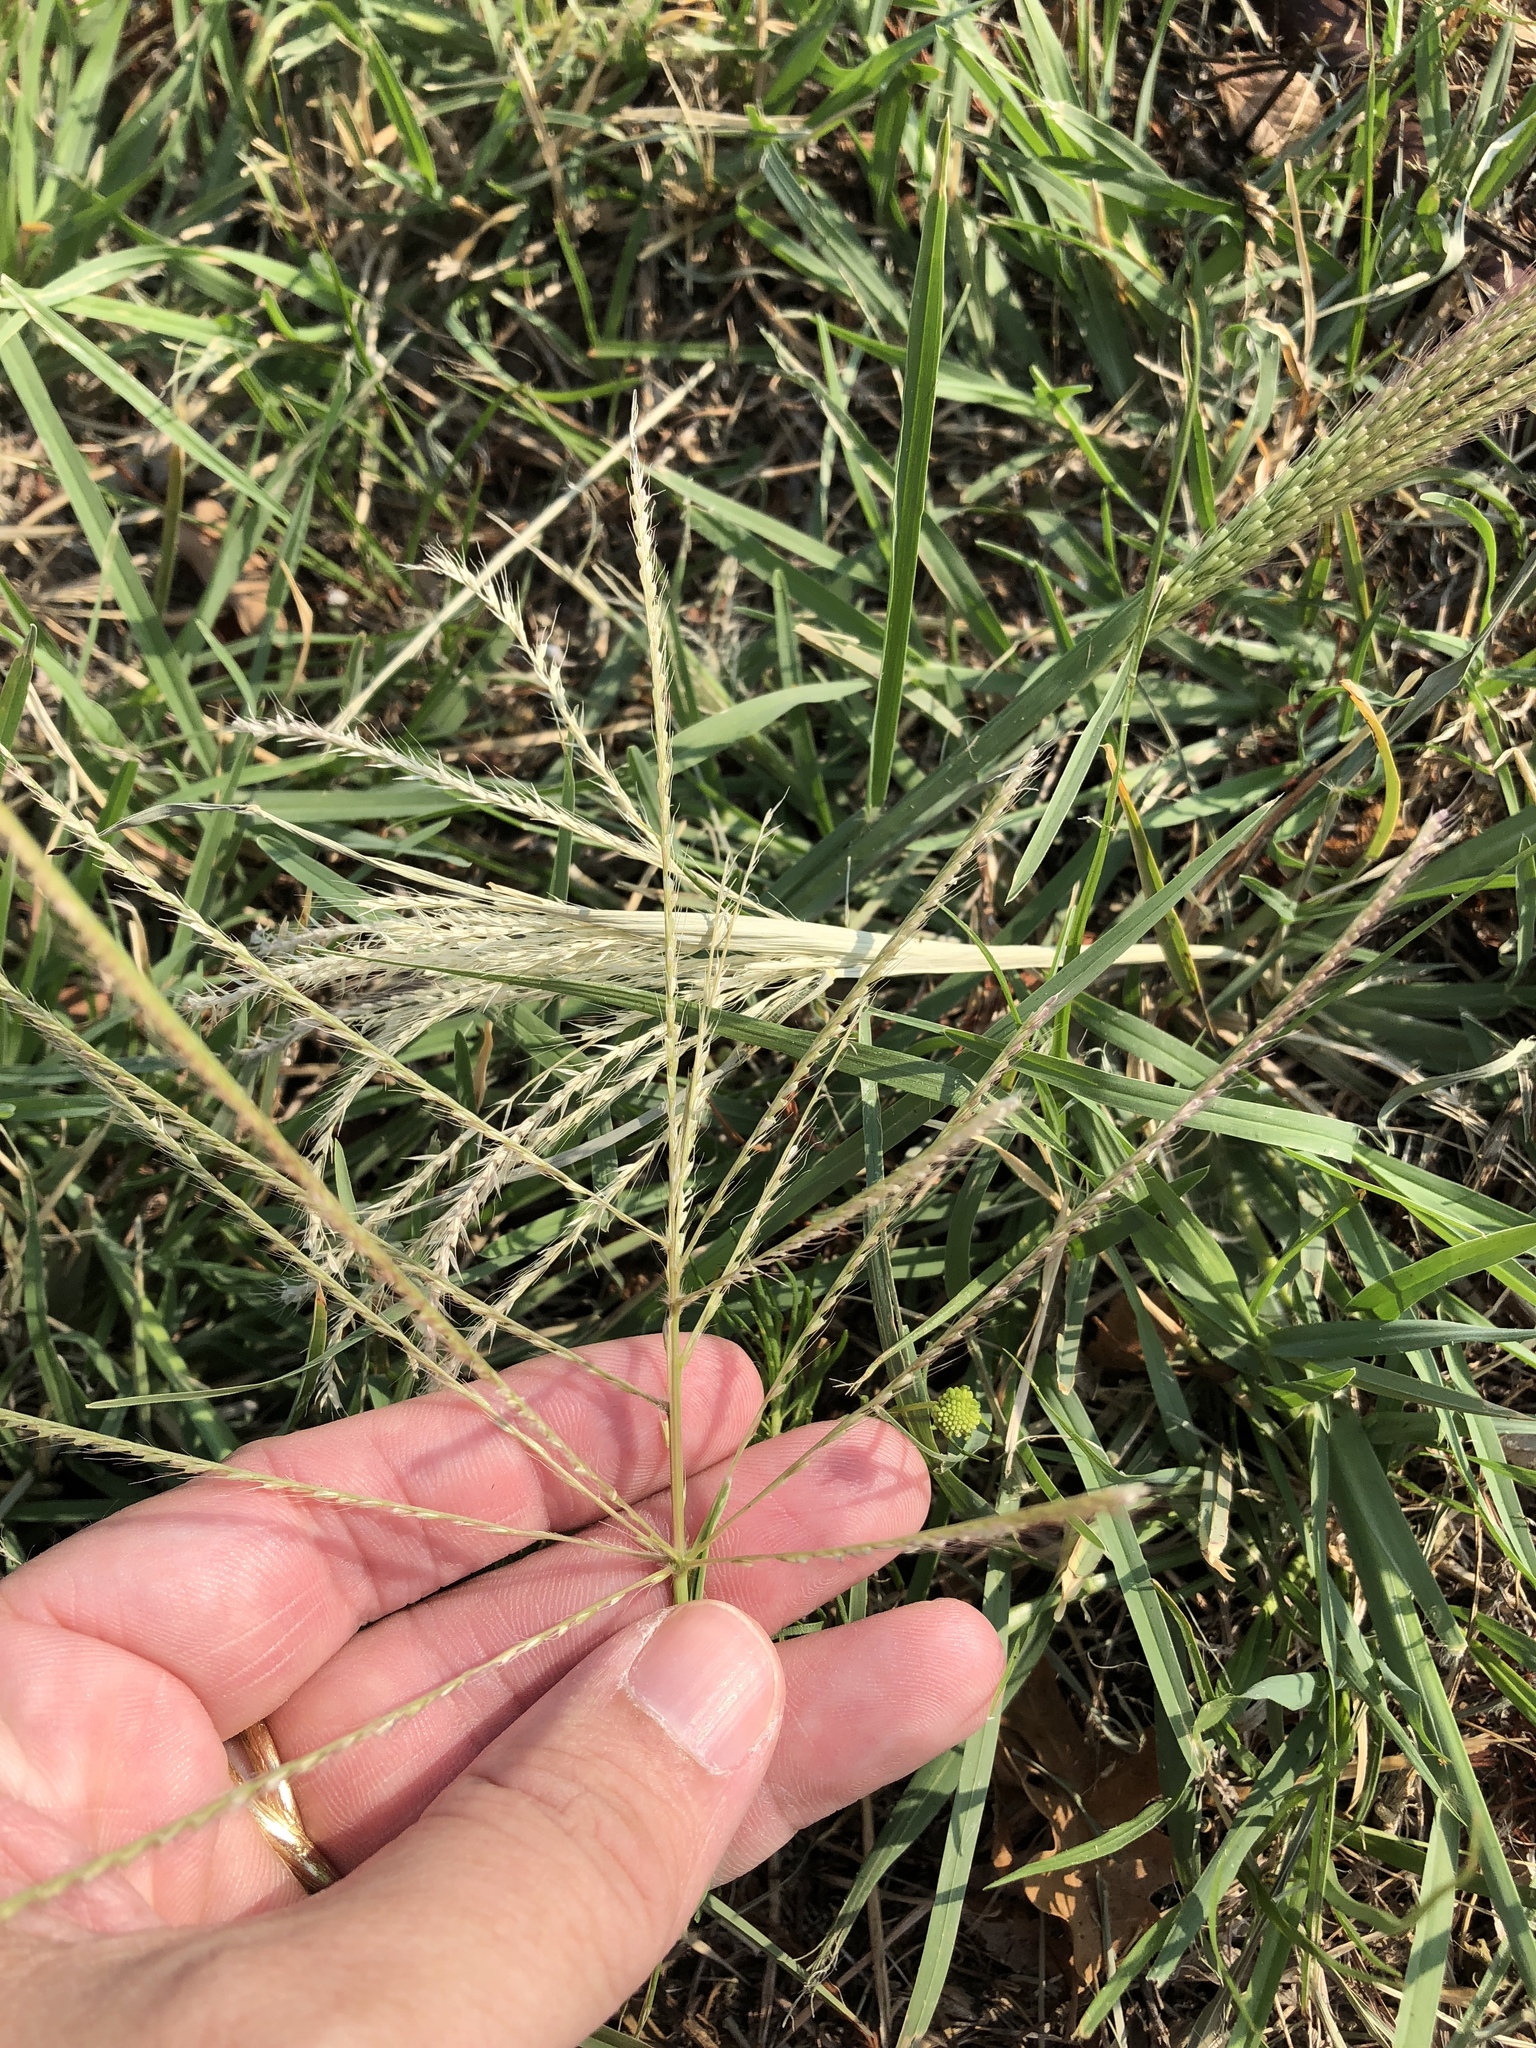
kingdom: Plantae
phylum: Tracheophyta
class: Liliopsida
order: Poales
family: Poaceae
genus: Chloris
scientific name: Chloris verticillata
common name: Tumble windmill grass
